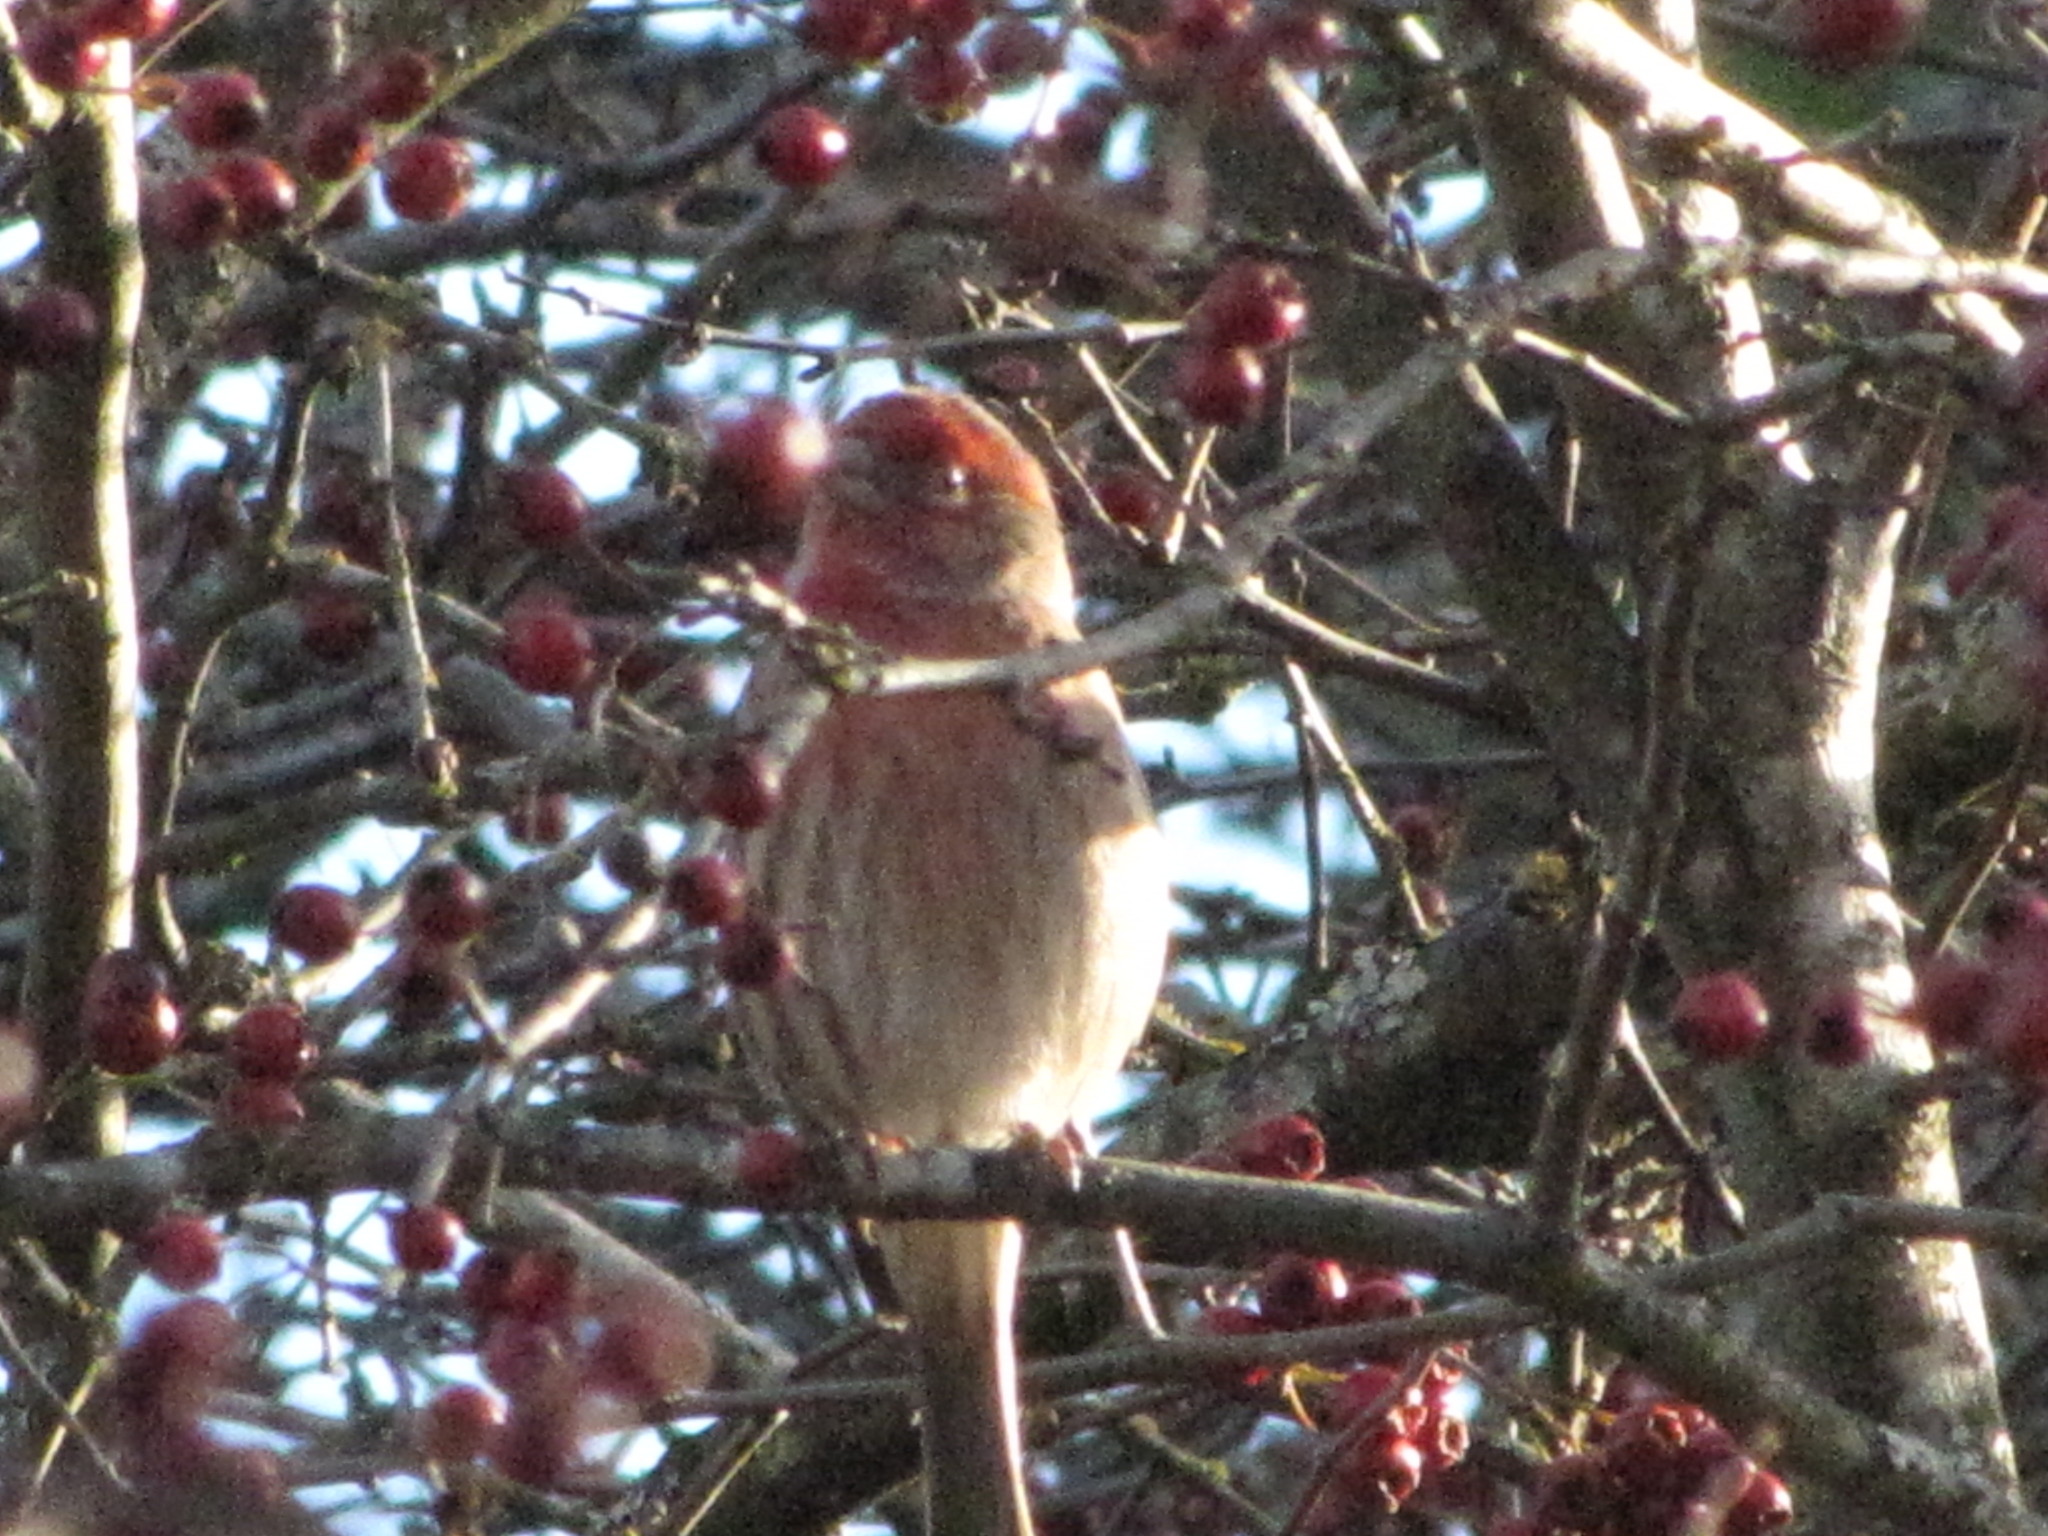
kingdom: Animalia
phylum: Chordata
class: Aves
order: Passeriformes
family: Fringillidae
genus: Haemorhous
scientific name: Haemorhous mexicanus
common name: House finch
